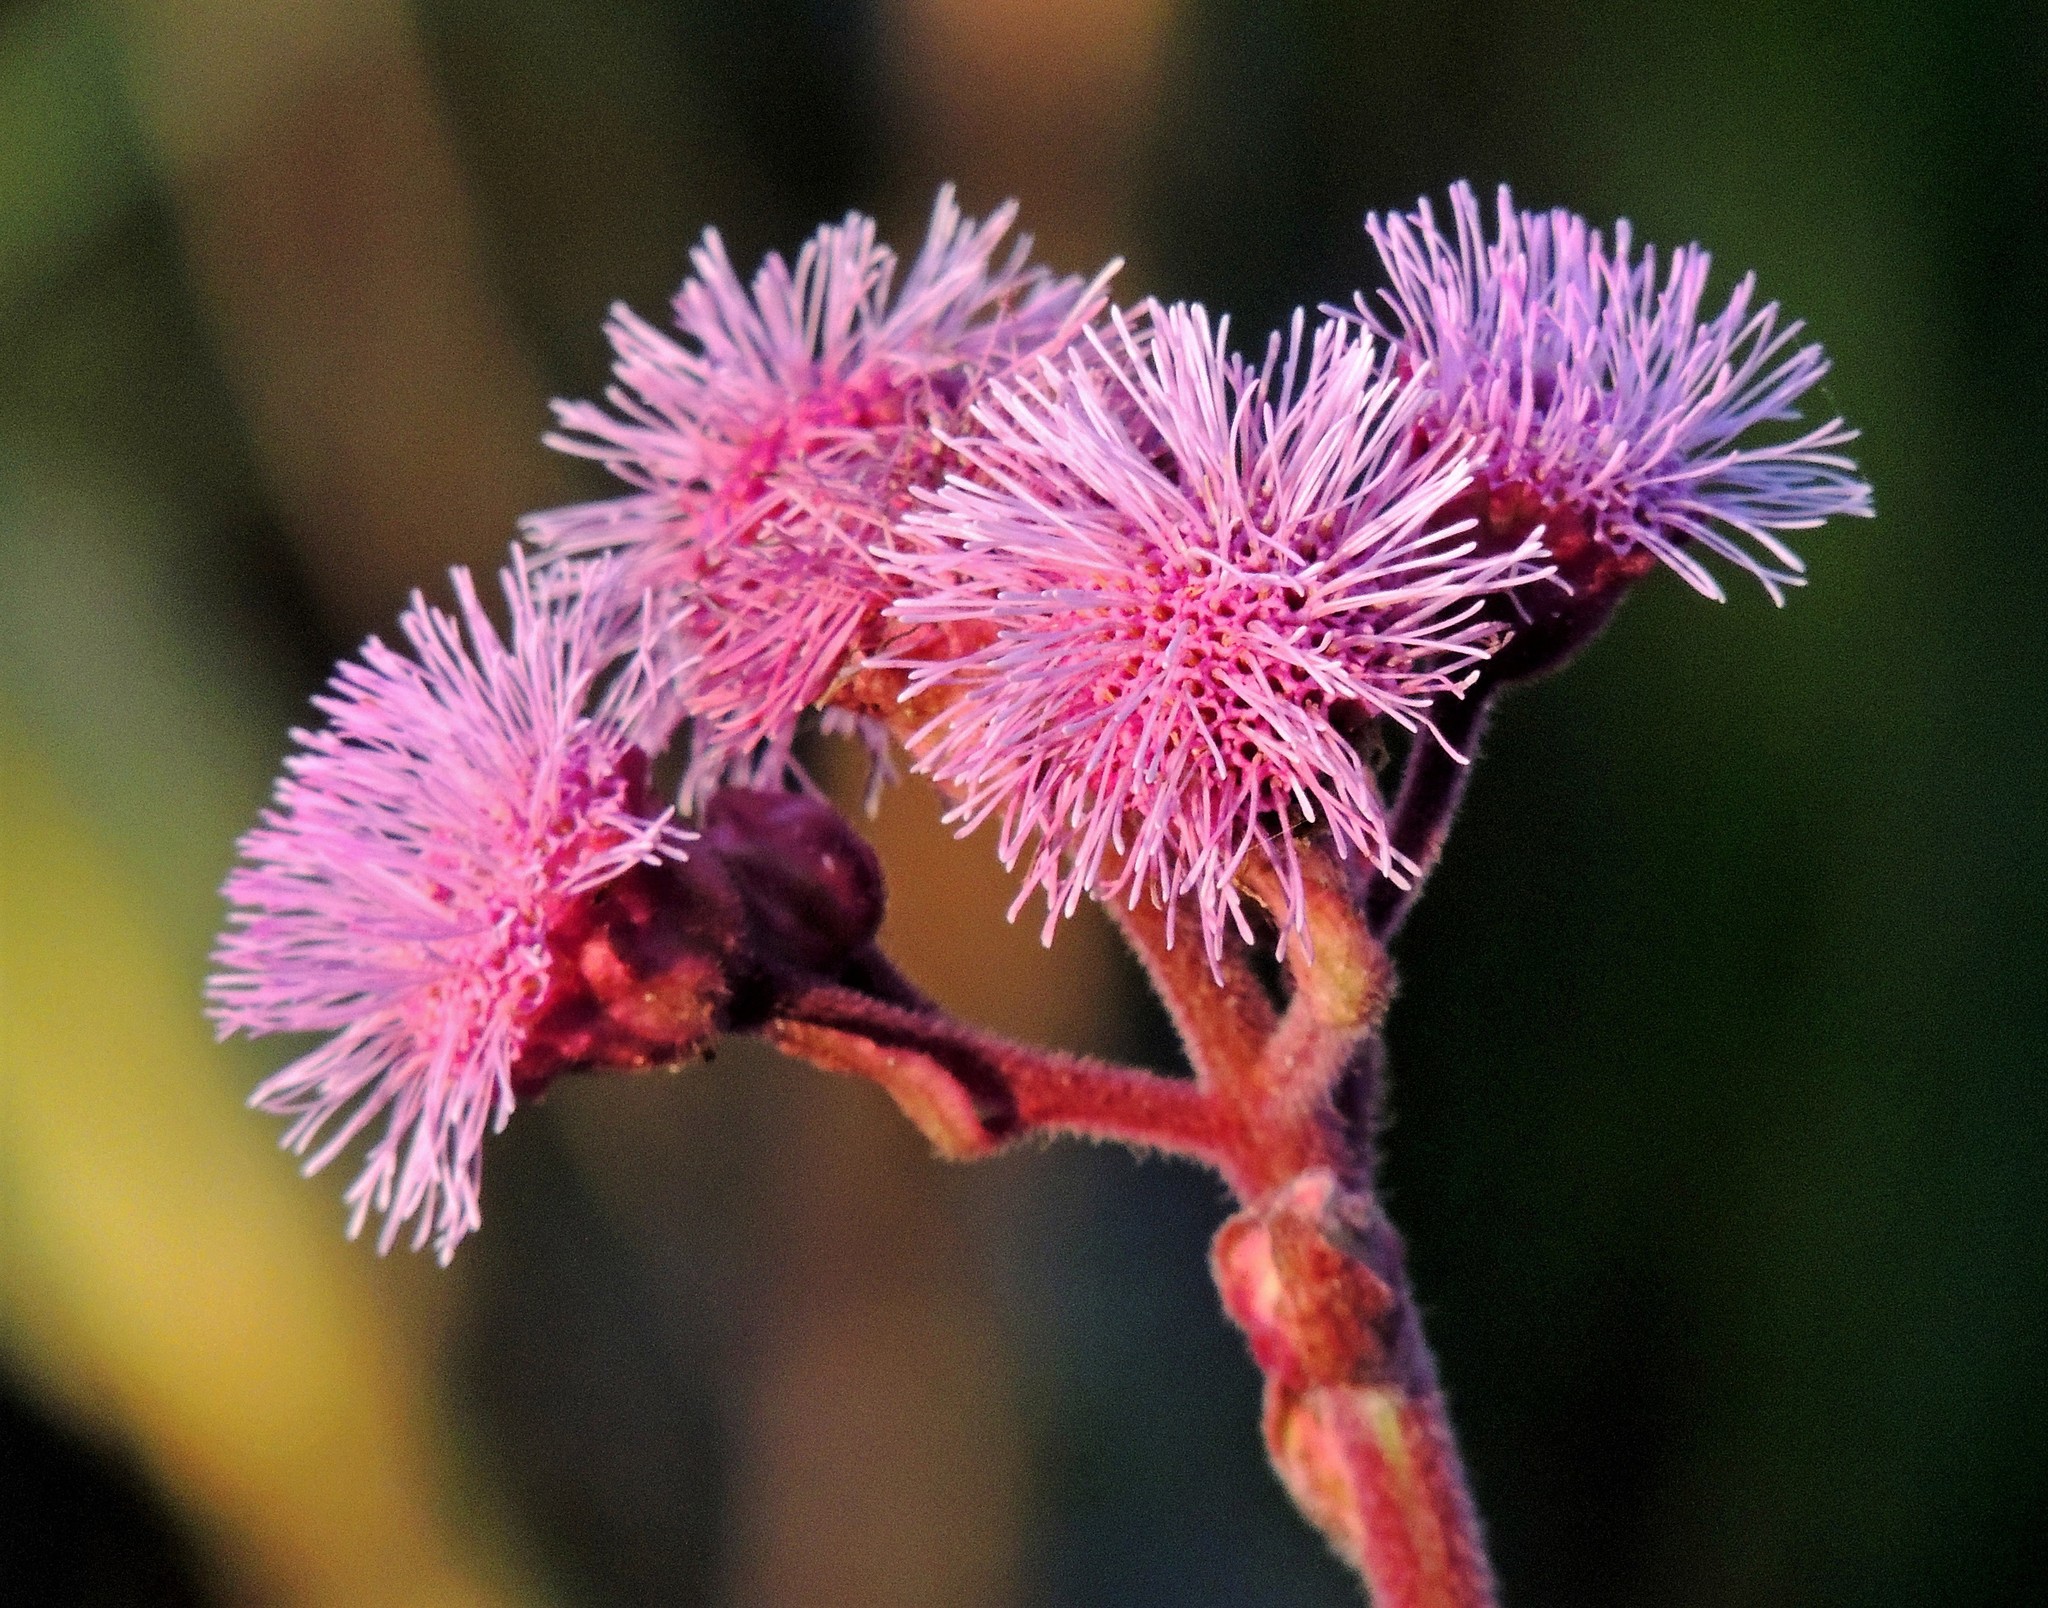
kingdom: Plantae
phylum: Tracheophyta
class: Magnoliopsida
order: Asterales
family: Asteraceae
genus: Campuloclinium
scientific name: Campuloclinium macrocephalum
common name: Pompomweed
